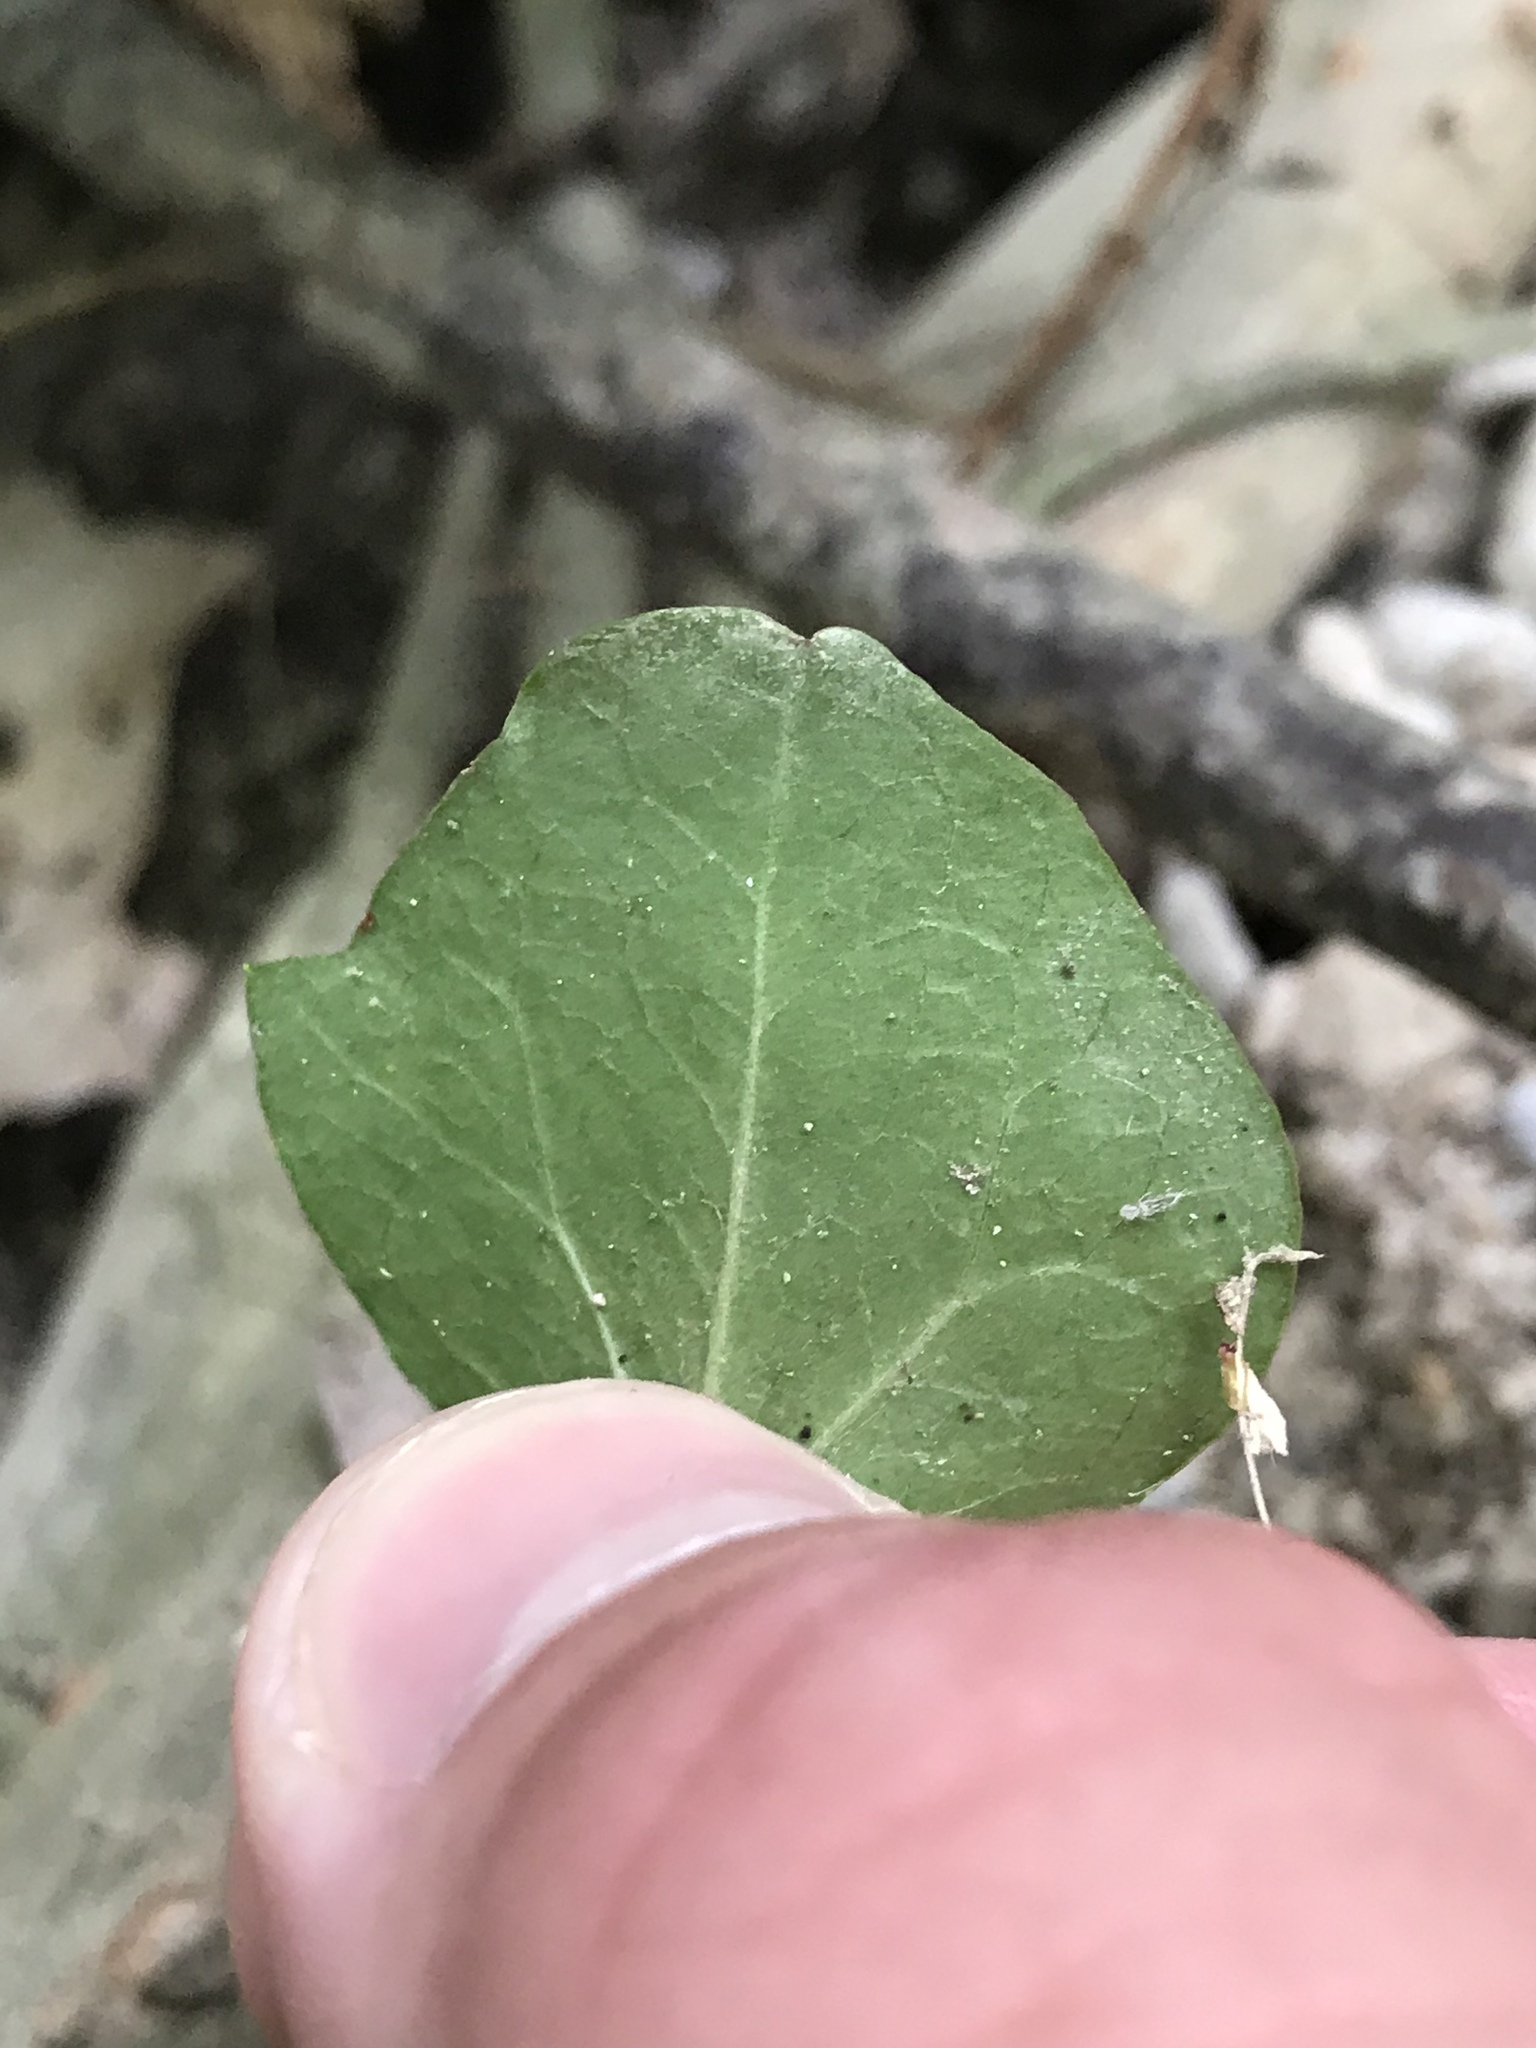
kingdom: Plantae
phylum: Tracheophyta
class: Magnoliopsida
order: Apiales
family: Araliaceae
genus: Hedera
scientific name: Hedera helix
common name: Ivy
